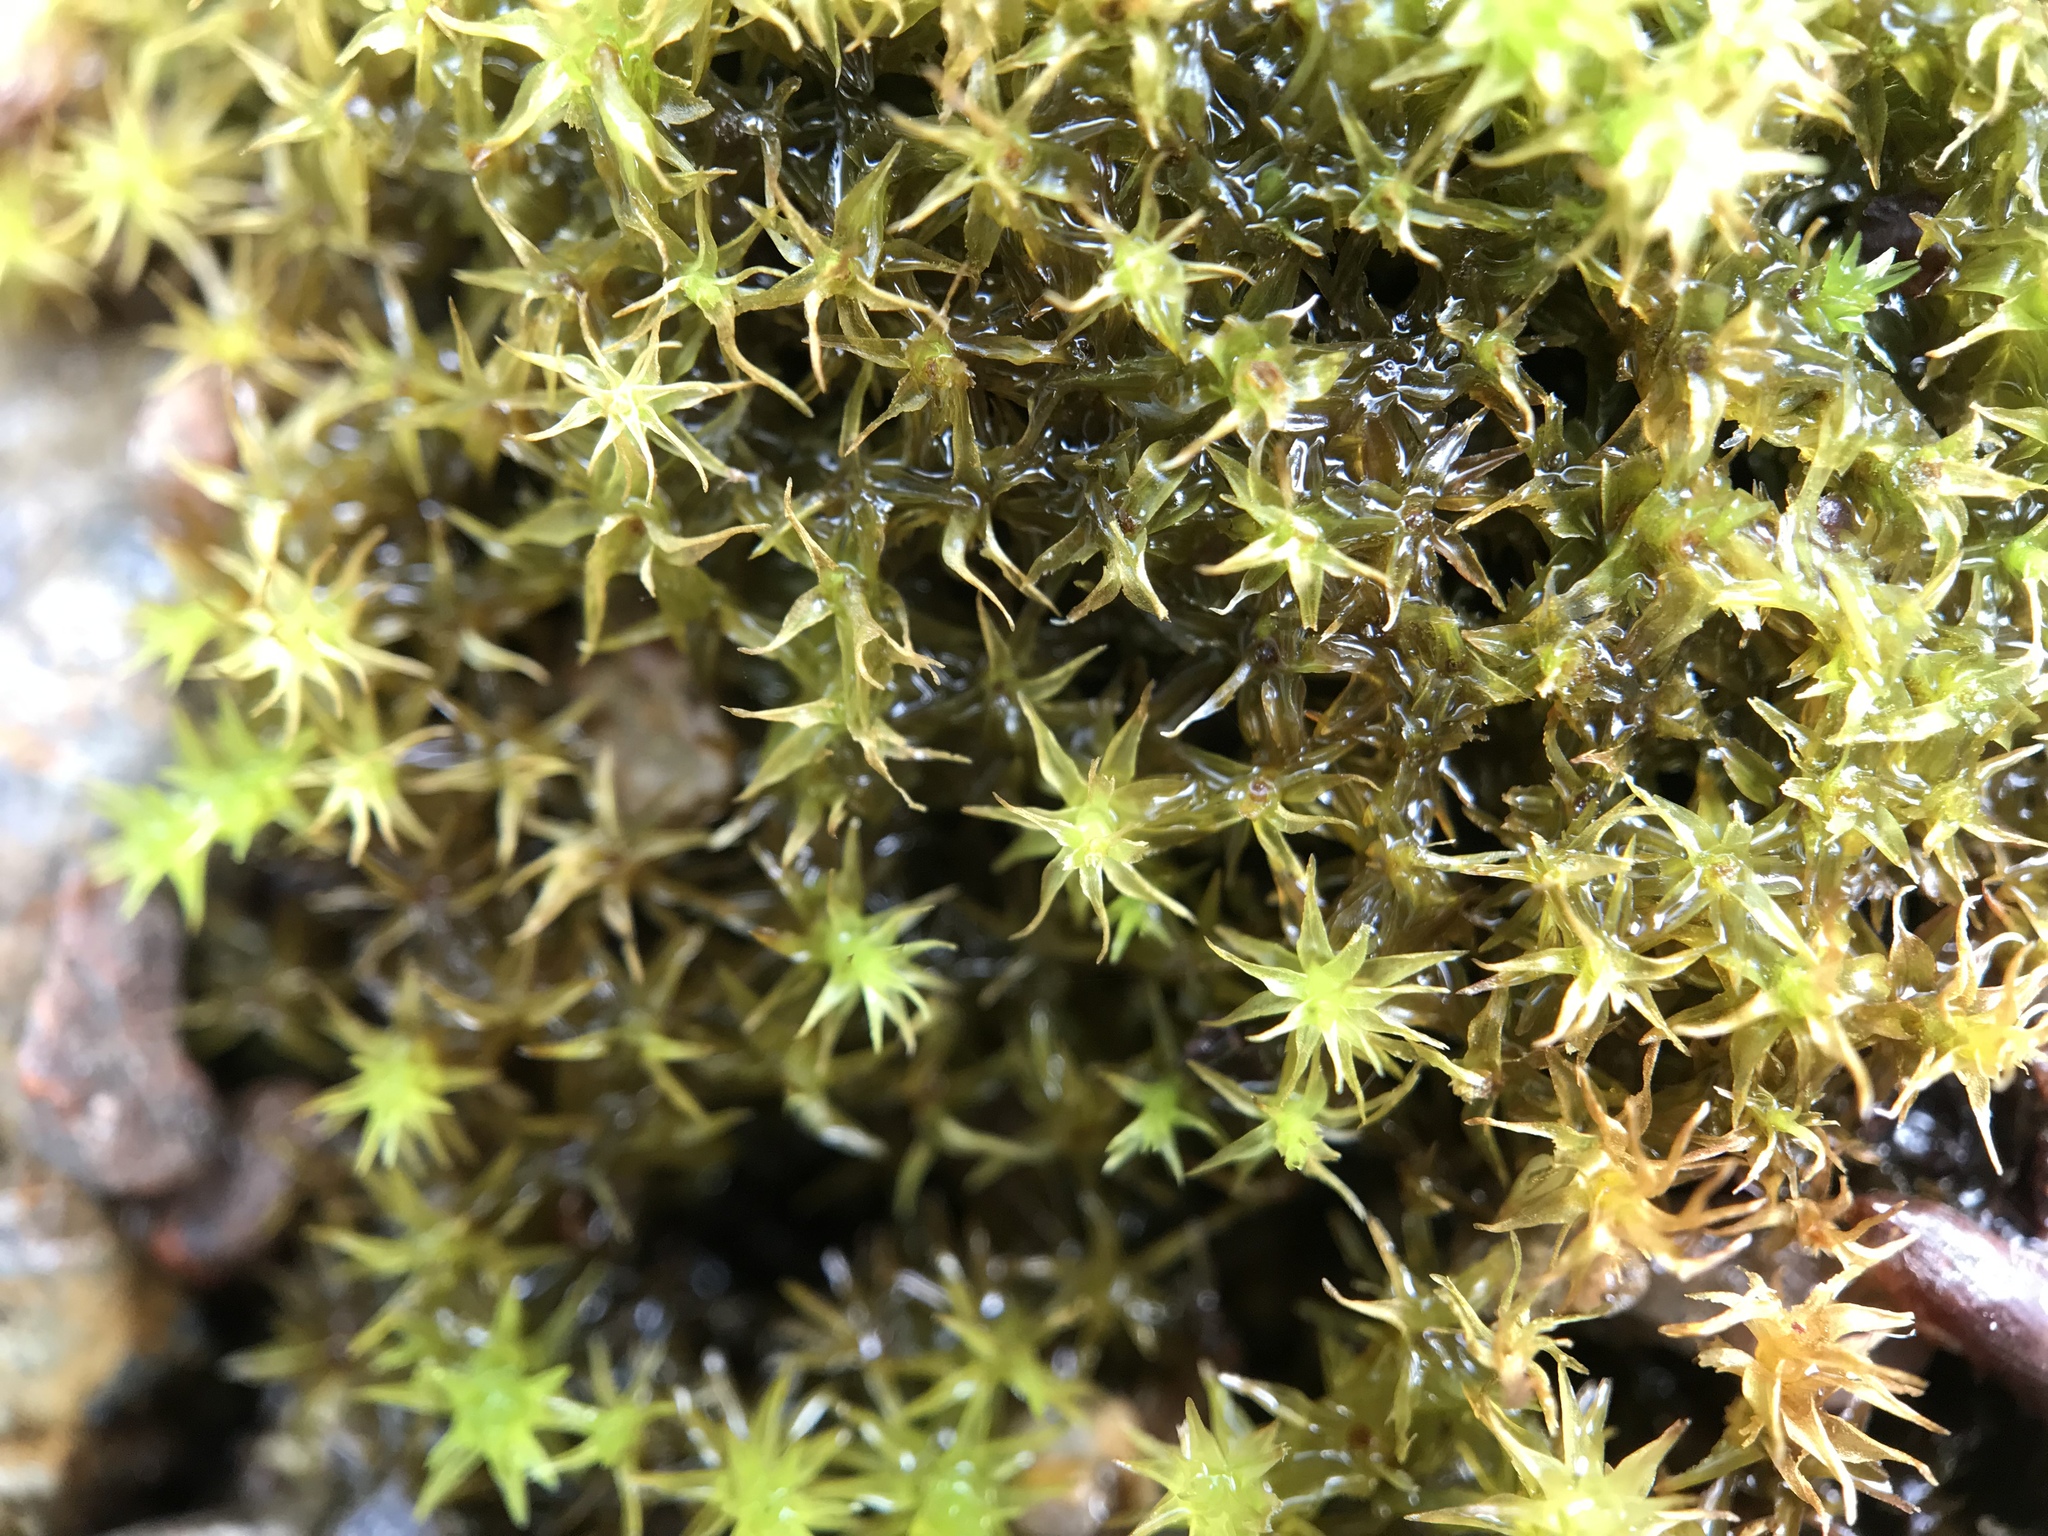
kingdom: Plantae
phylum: Bryophyta
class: Bryopsida
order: Dicranales
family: Aongstroemiaceae
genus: Dichodontium
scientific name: Dichodontium pellucidum
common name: Transparent fork moss
